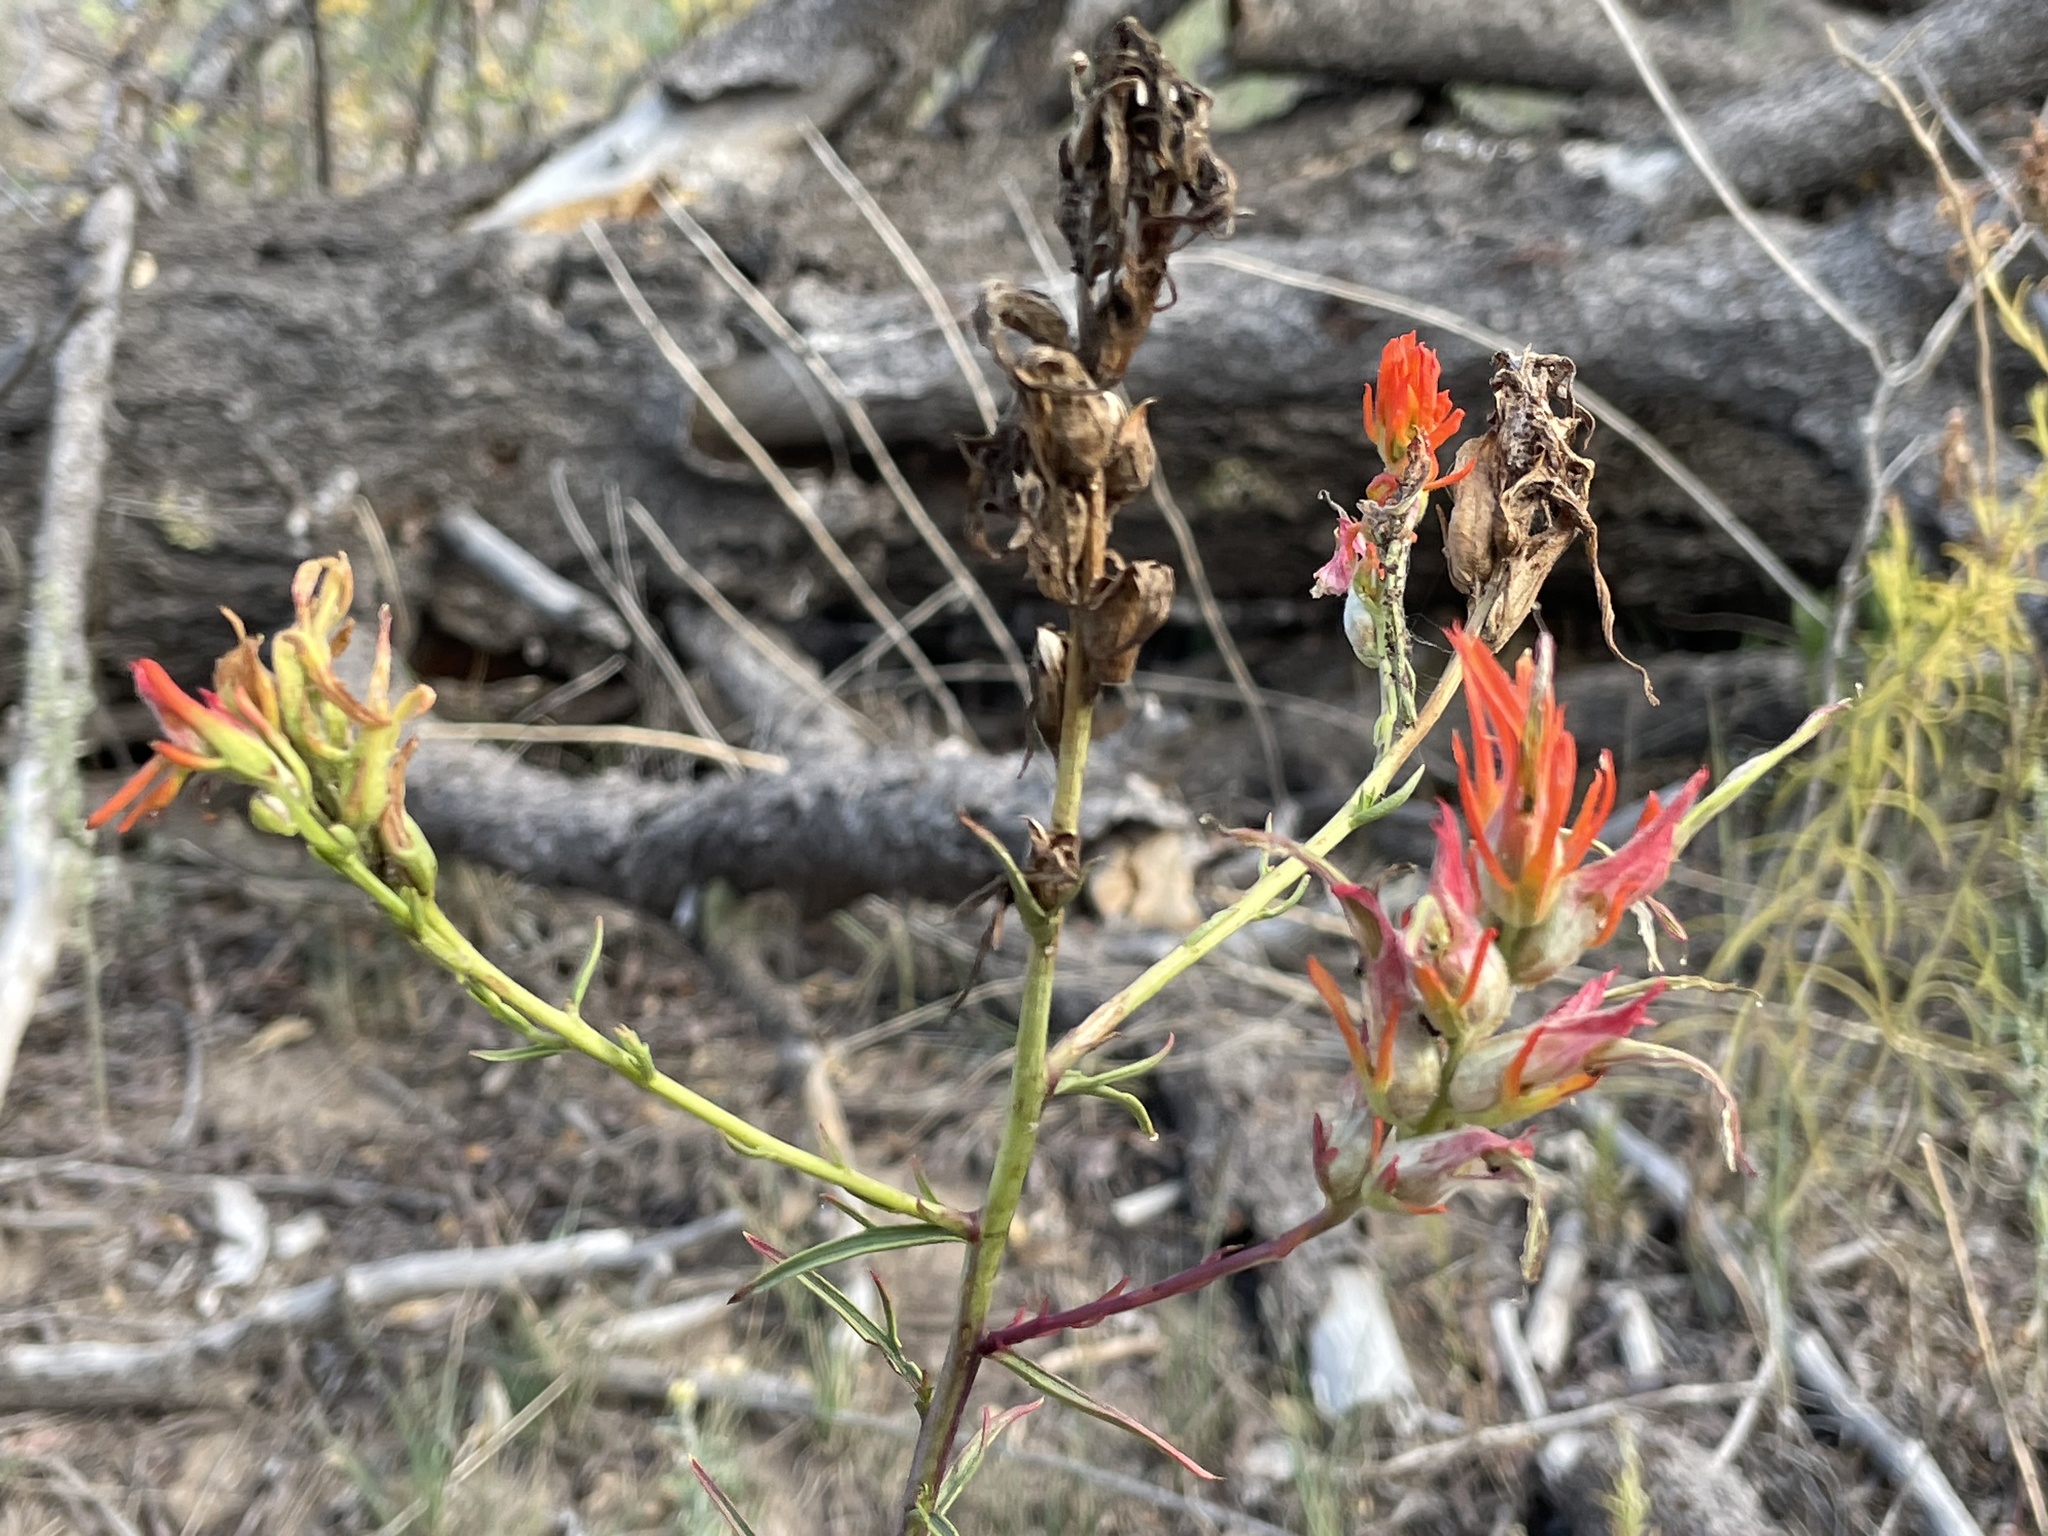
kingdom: Plantae
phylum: Tracheophyta
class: Magnoliopsida
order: Lamiales
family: Orobanchaceae
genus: Castilleja
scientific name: Castilleja linariifolia
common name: Wyoming paintbrush
